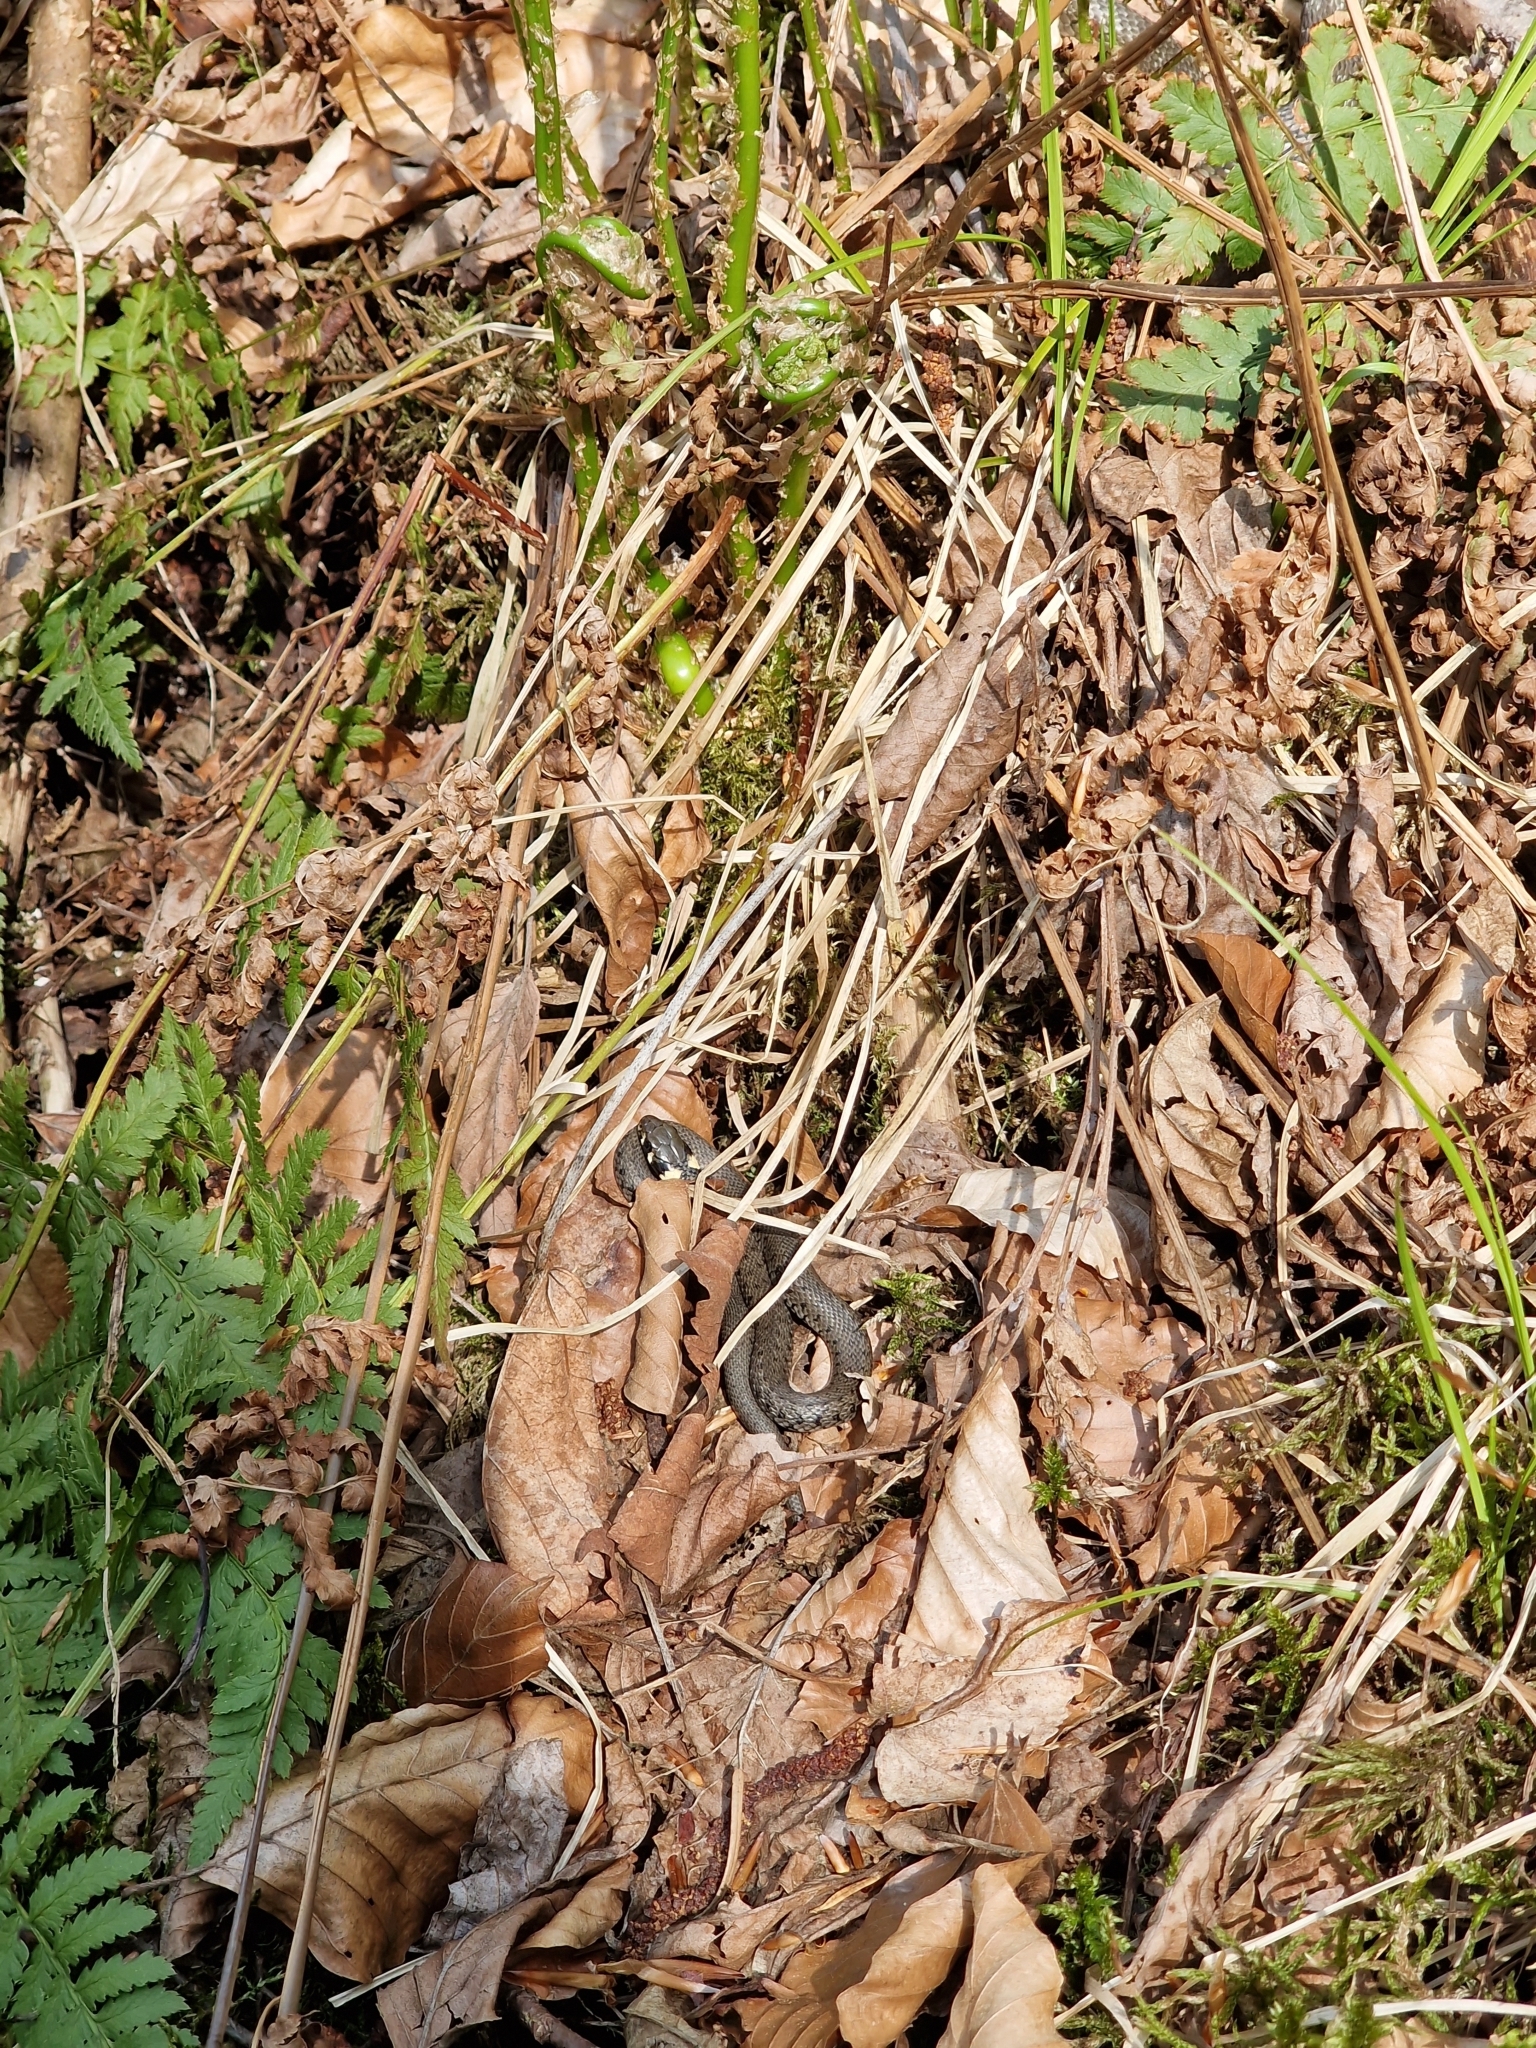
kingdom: Animalia
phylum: Chordata
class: Squamata
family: Colubridae
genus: Natrix
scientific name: Natrix natrix
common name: Grass snake
